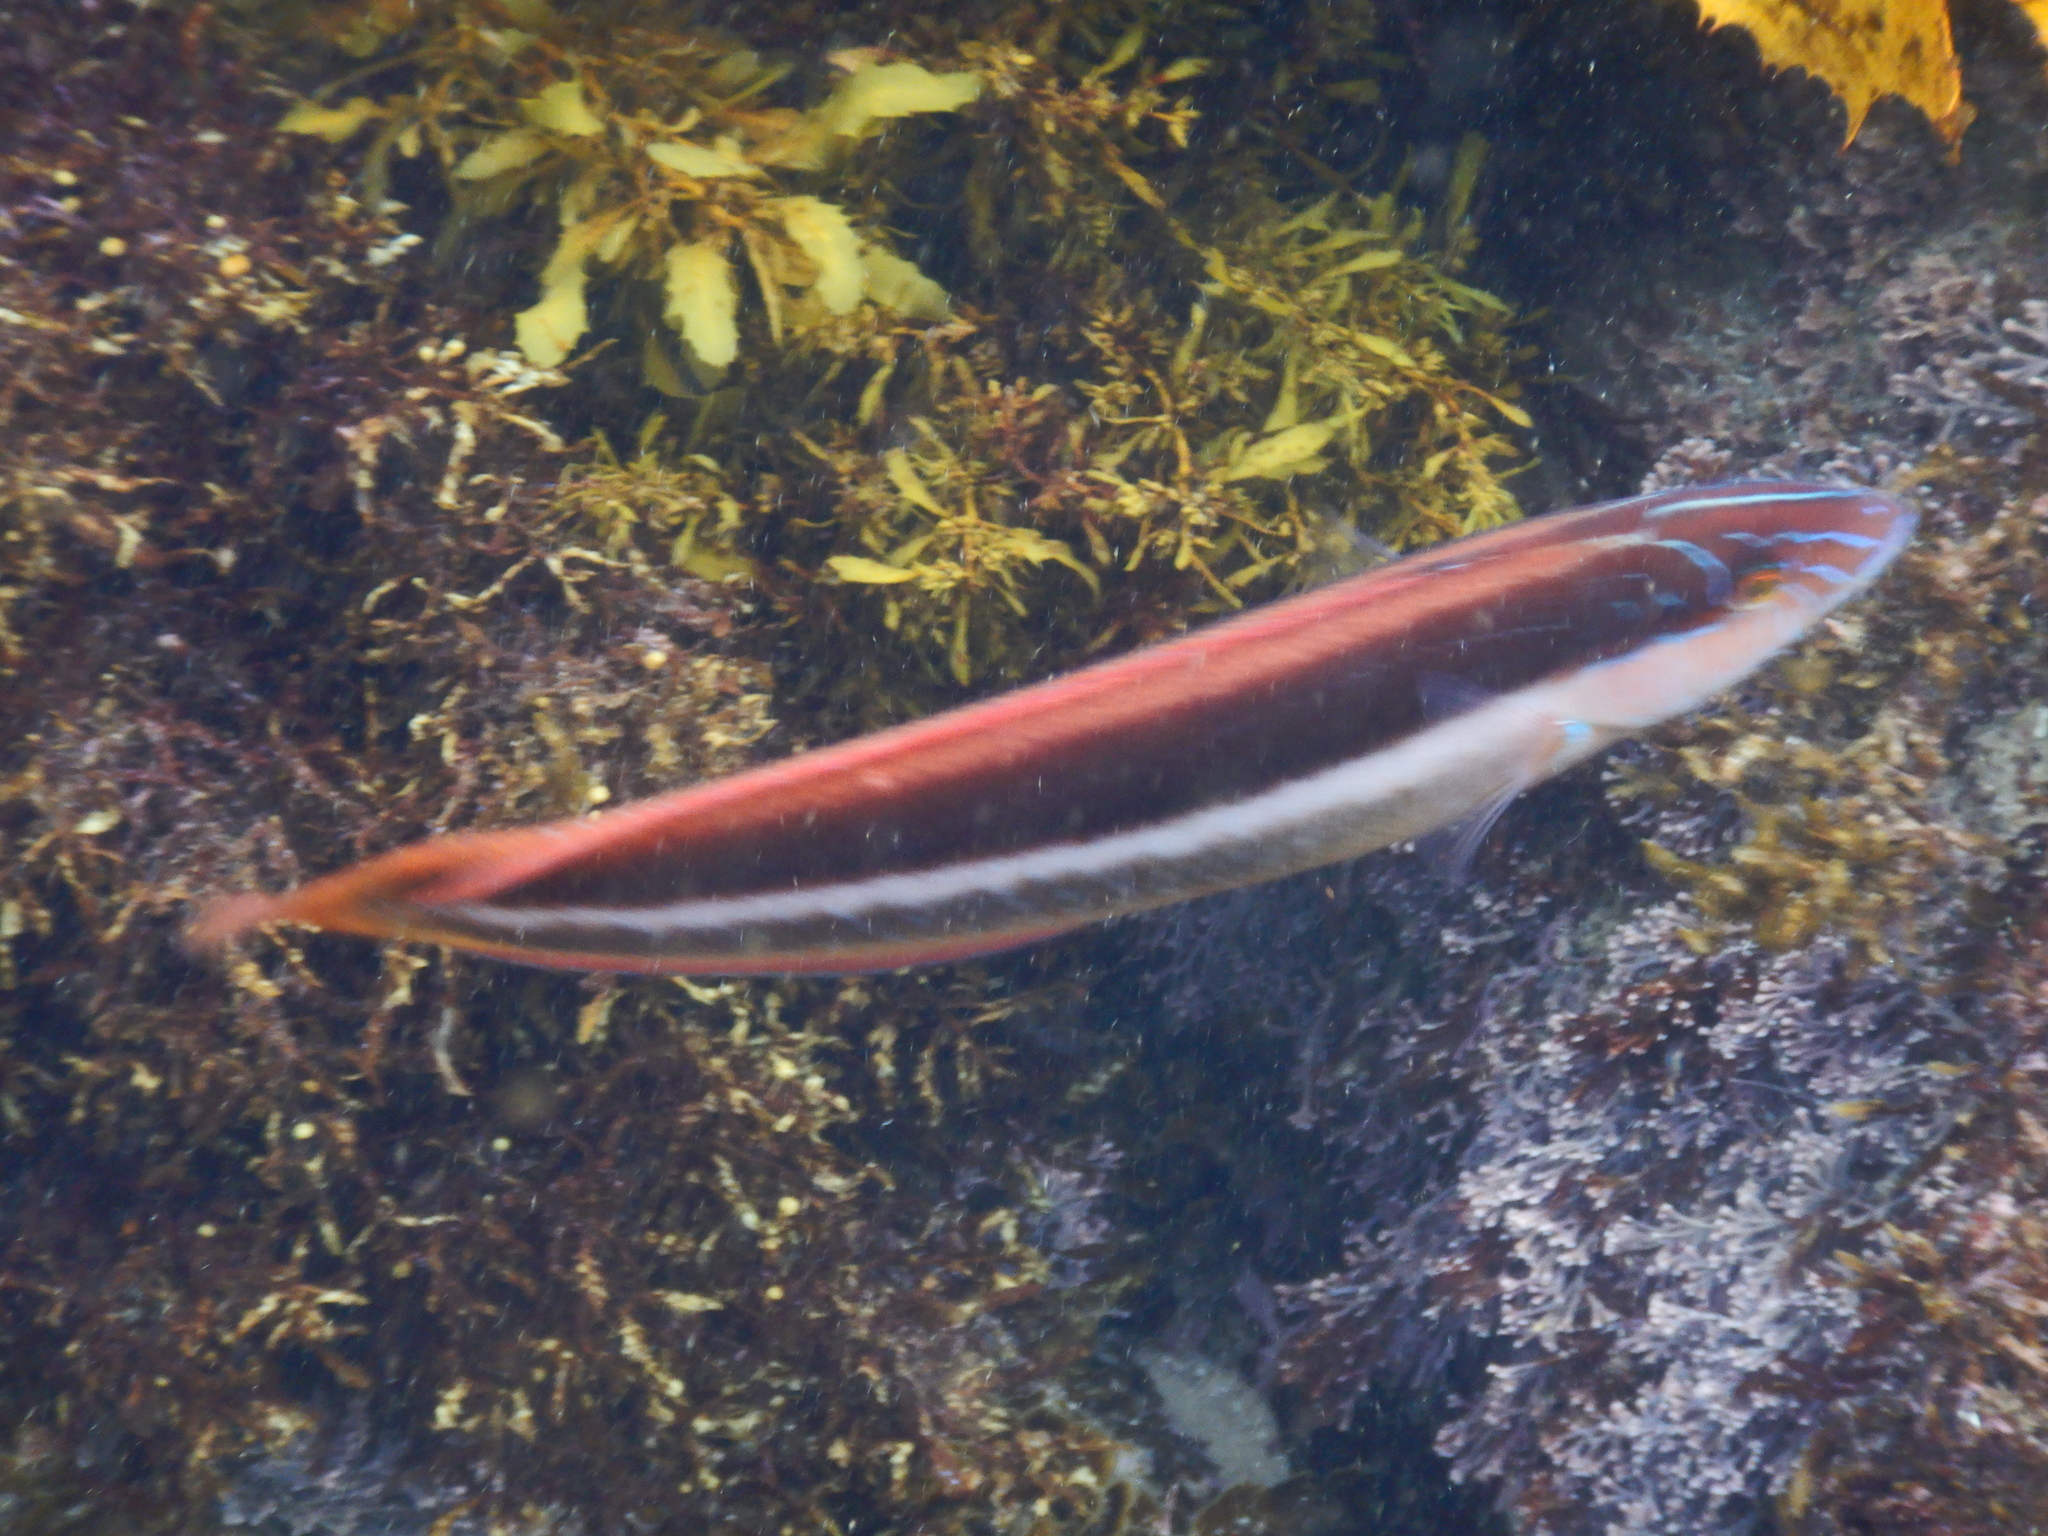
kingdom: Animalia
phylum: Chordata
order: Perciformes
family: Labridae
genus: Ophthalmolepis
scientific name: Ophthalmolepis lineolata
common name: Maori wrasse
